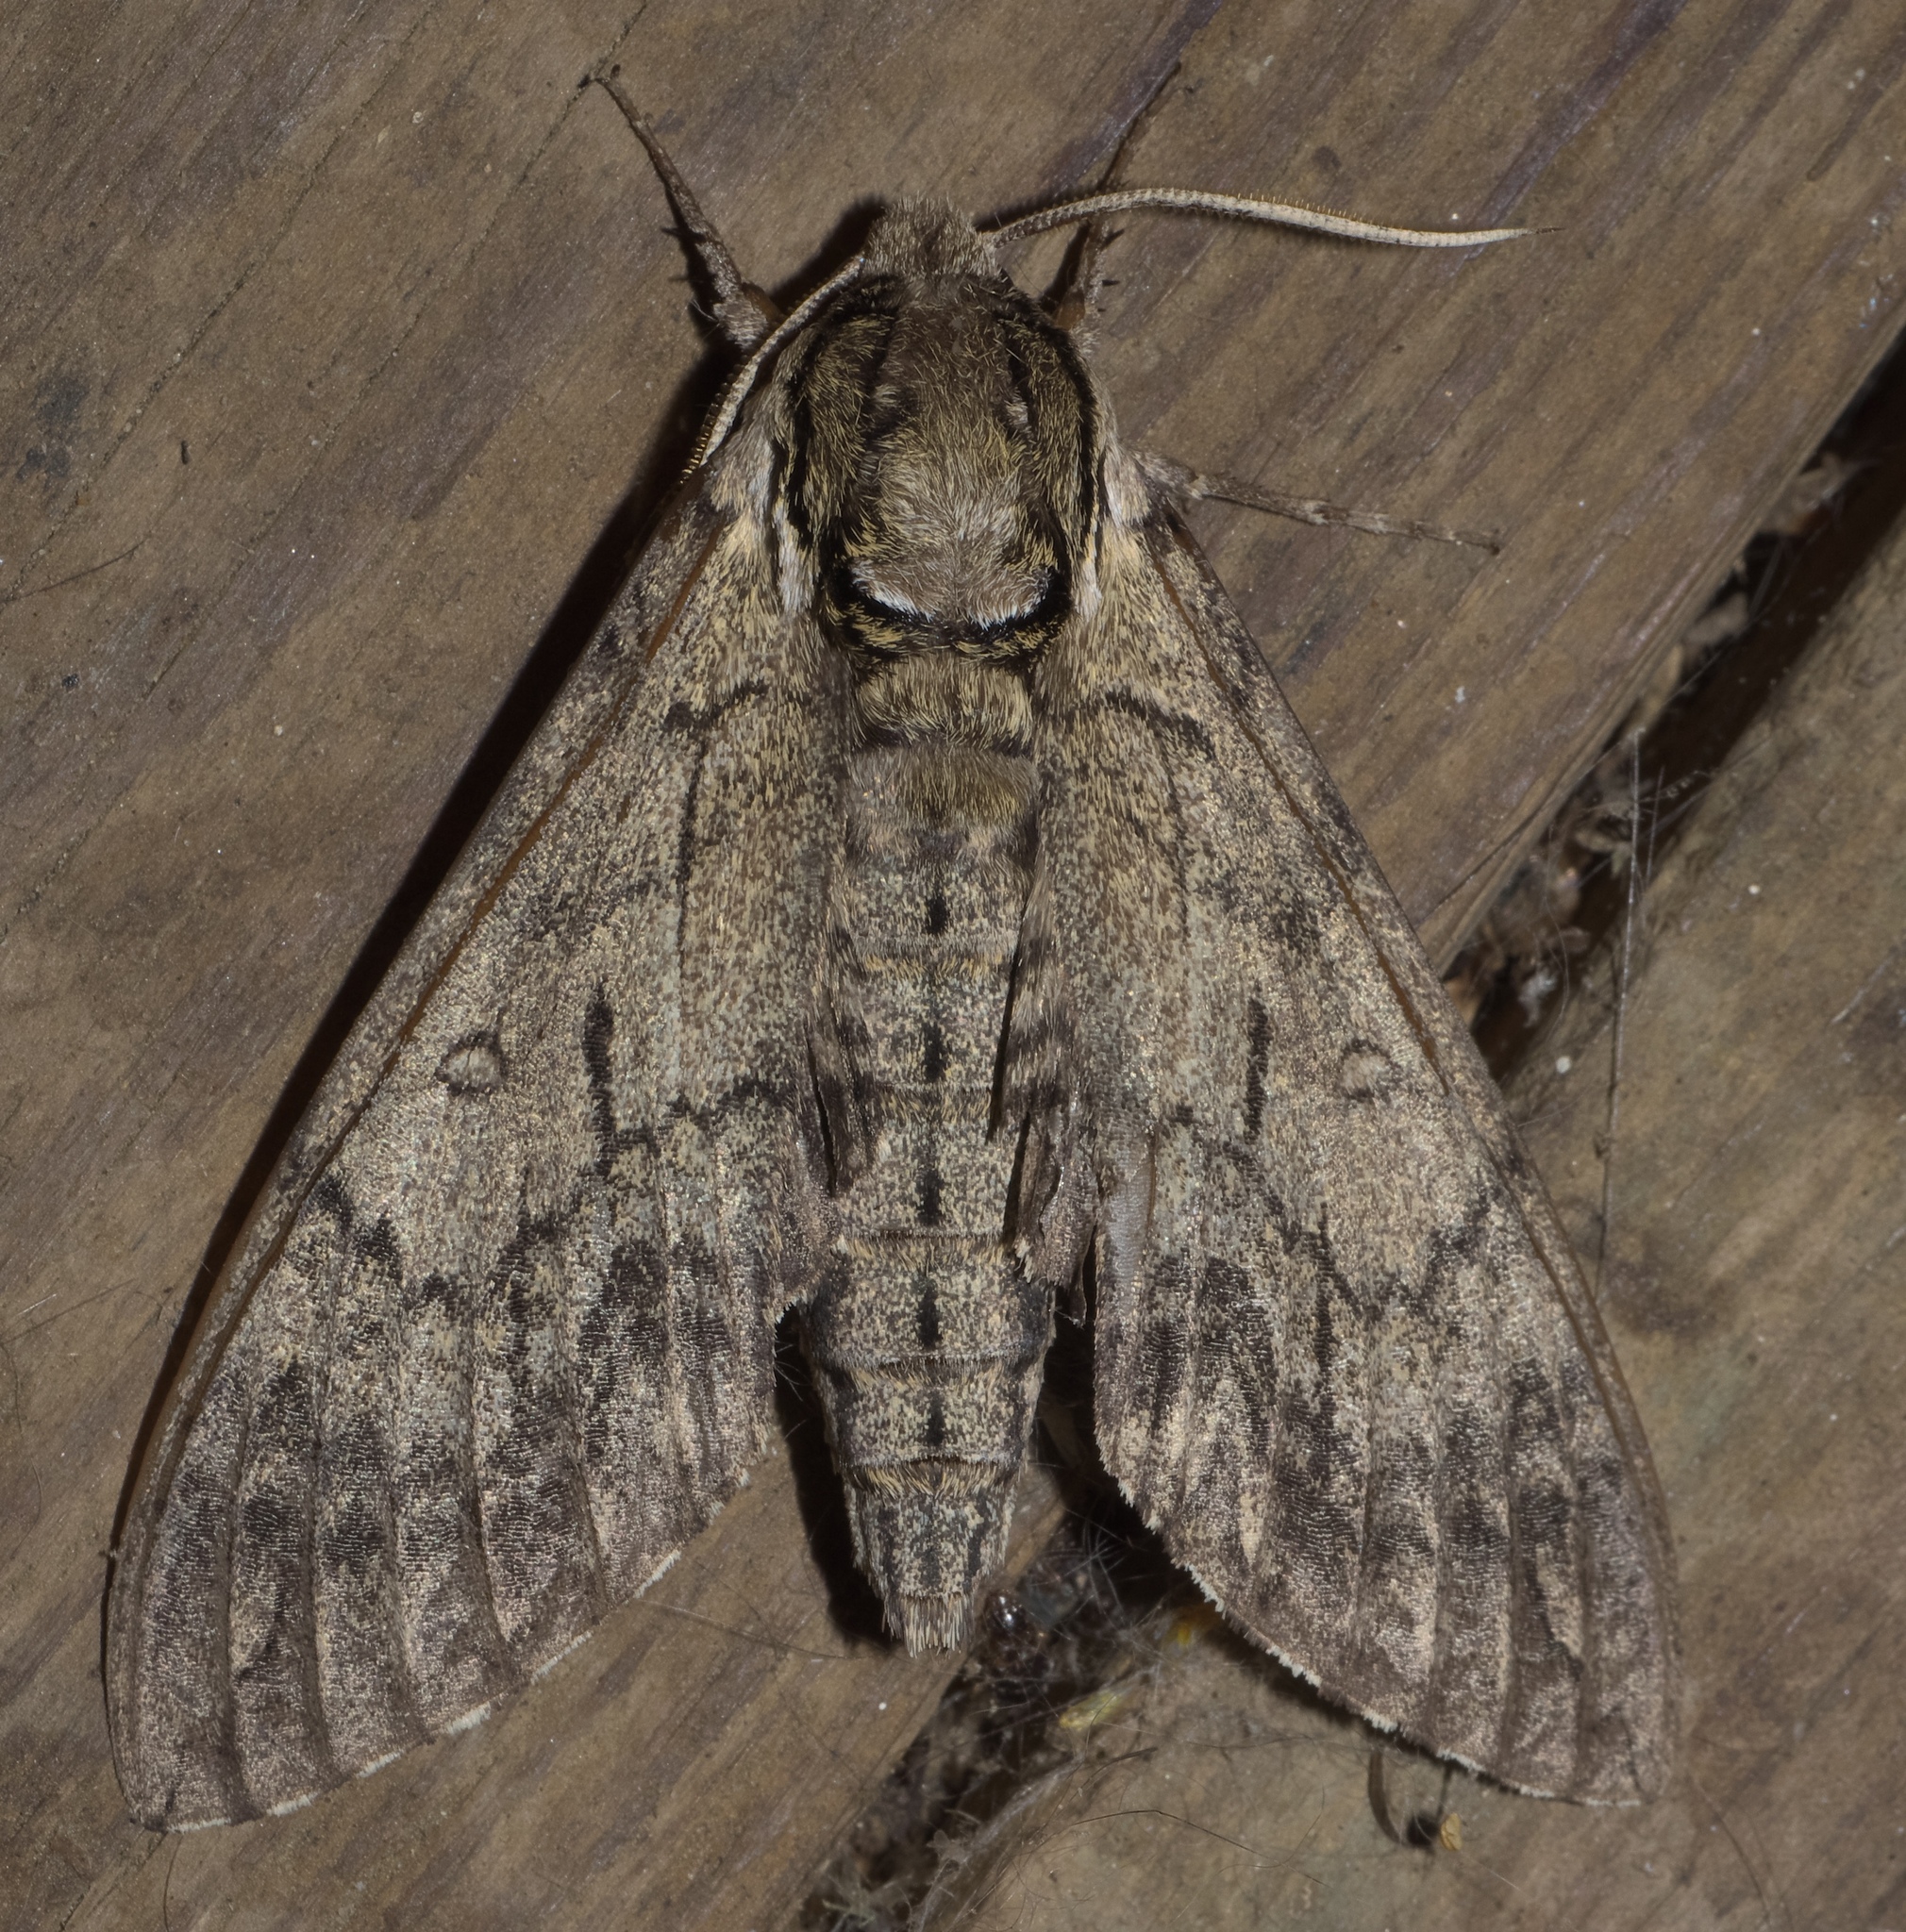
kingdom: Animalia
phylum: Arthropoda
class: Insecta
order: Lepidoptera
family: Sphingidae
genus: Ceratomia
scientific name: Ceratomia catalpae
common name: Catalpa hornworm
